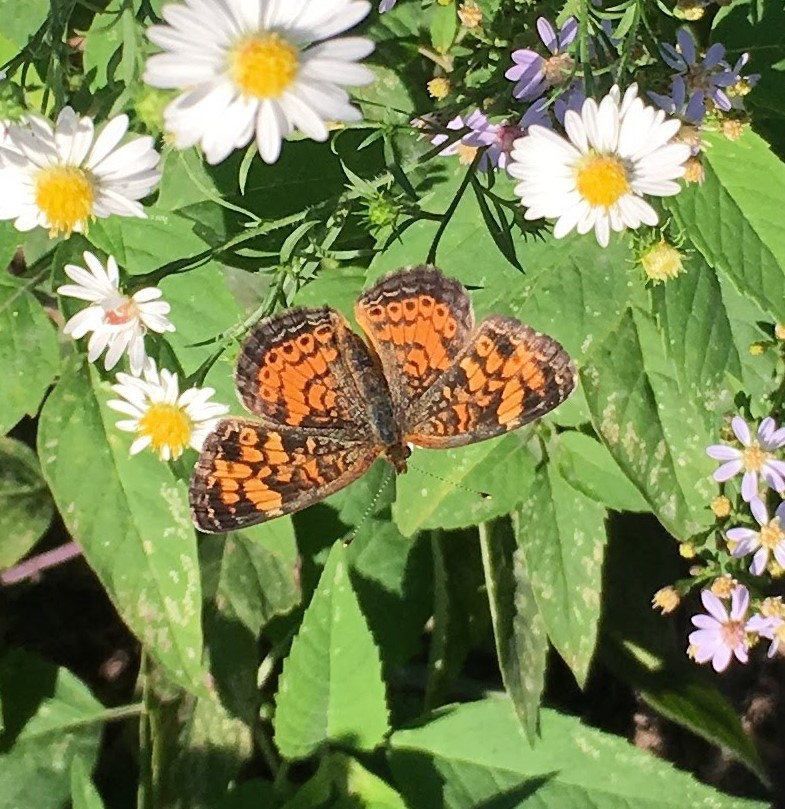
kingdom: Animalia
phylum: Arthropoda
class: Insecta
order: Lepidoptera
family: Nymphalidae
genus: Phyciodes
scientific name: Phyciodes tharos
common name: Pearl crescent
